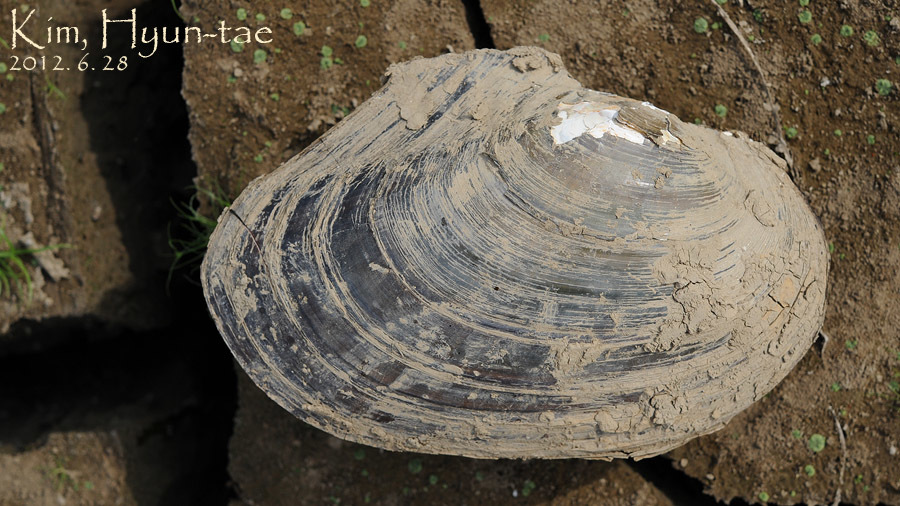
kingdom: Animalia
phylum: Mollusca
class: Bivalvia
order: Unionida
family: Unionidae
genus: Cristaria
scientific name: Cristaria plicata
